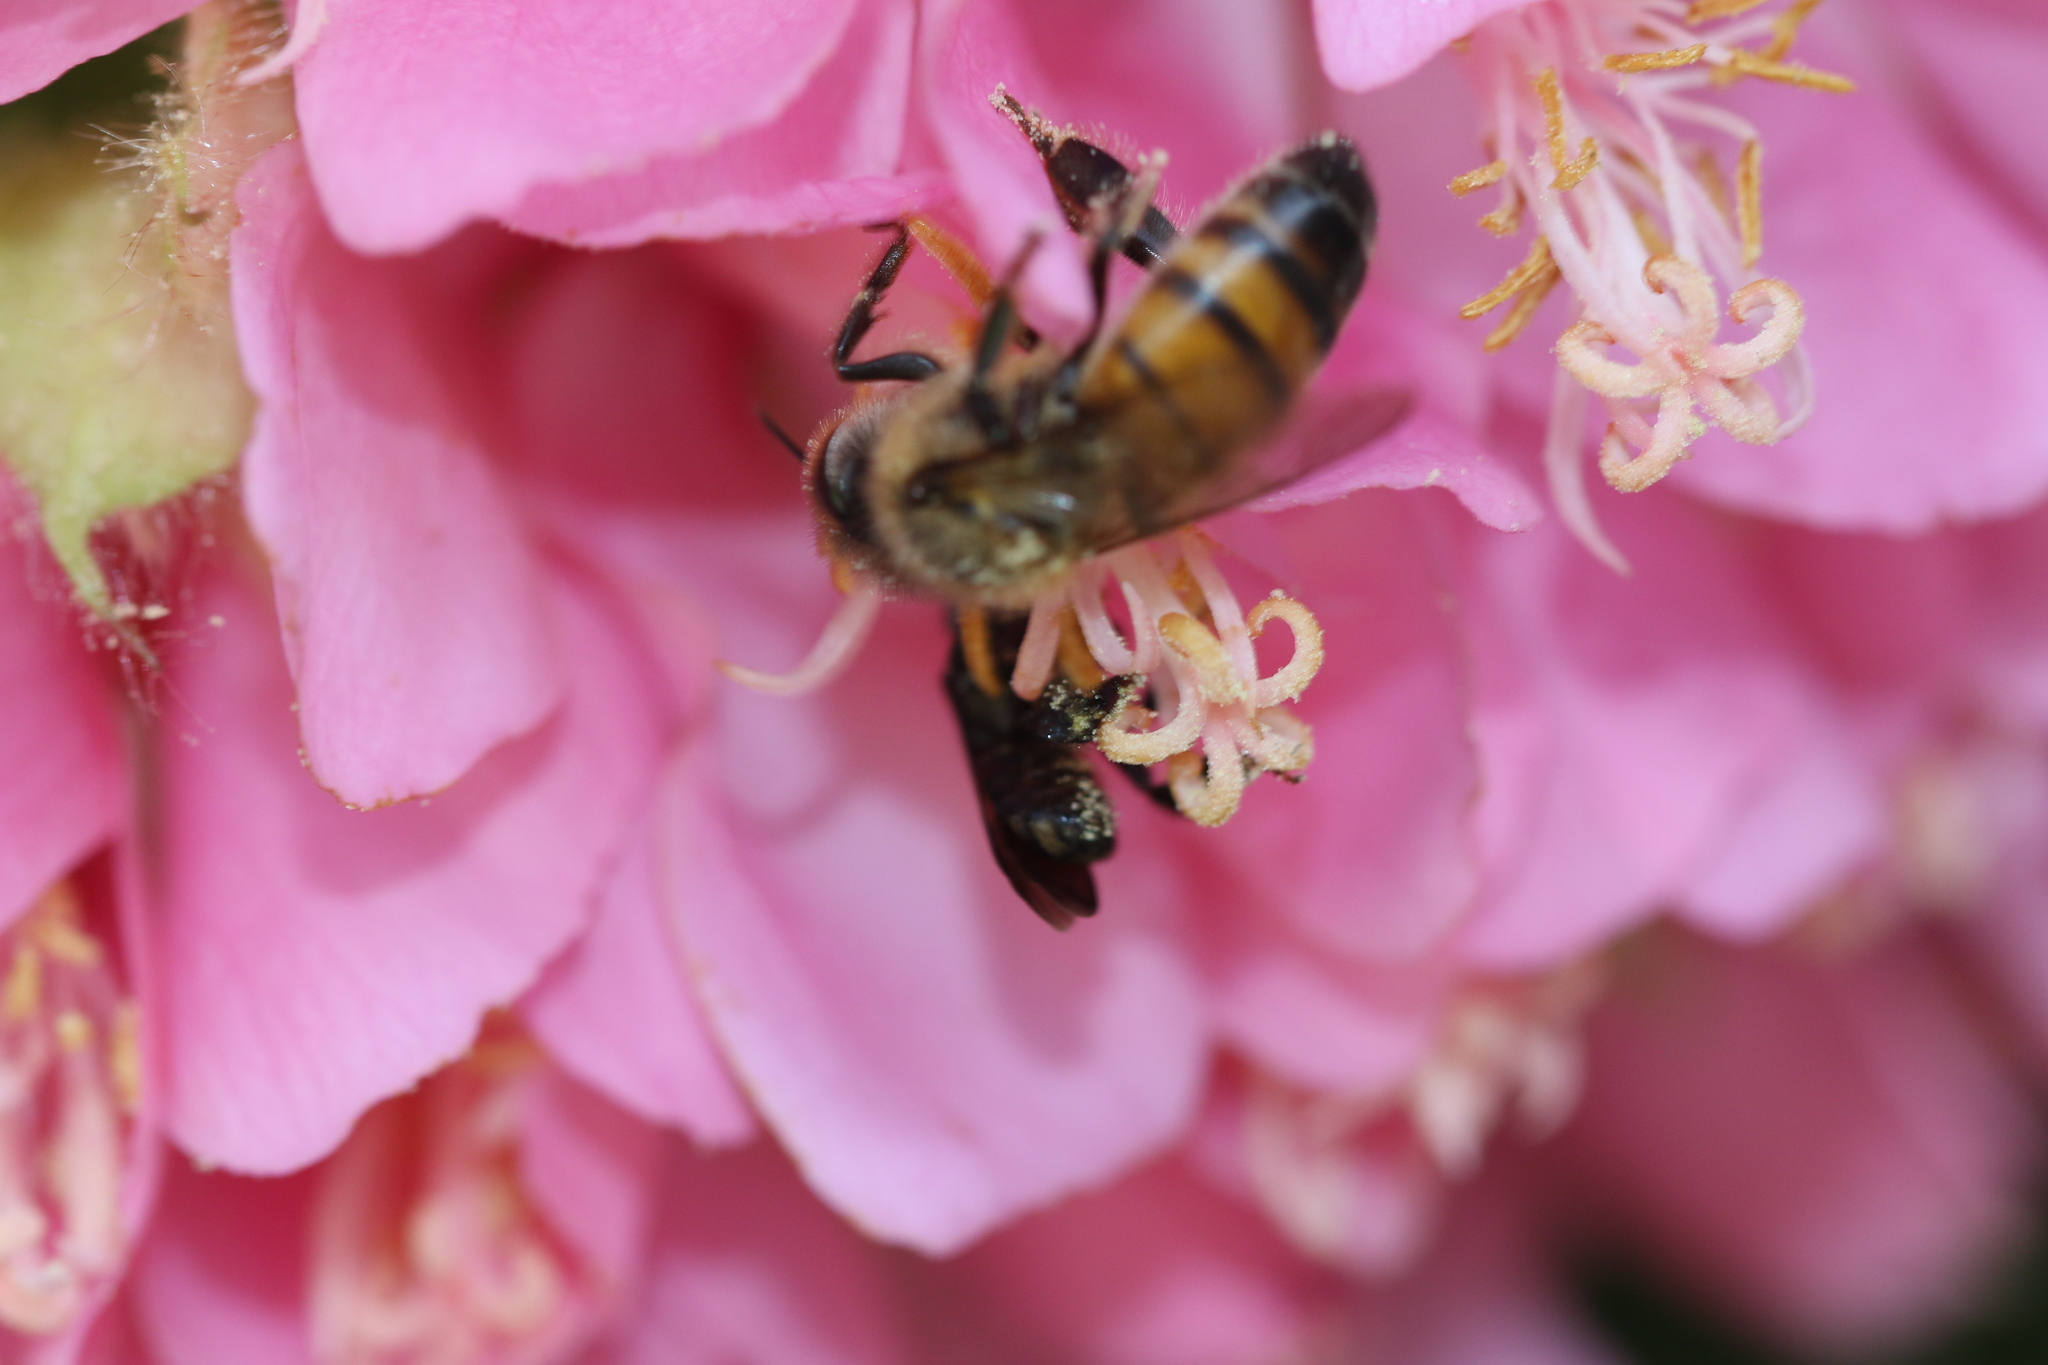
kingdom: Animalia
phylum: Arthropoda
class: Insecta
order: Hymenoptera
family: Apidae
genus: Apis
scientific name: Apis mellifera
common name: Honey bee
